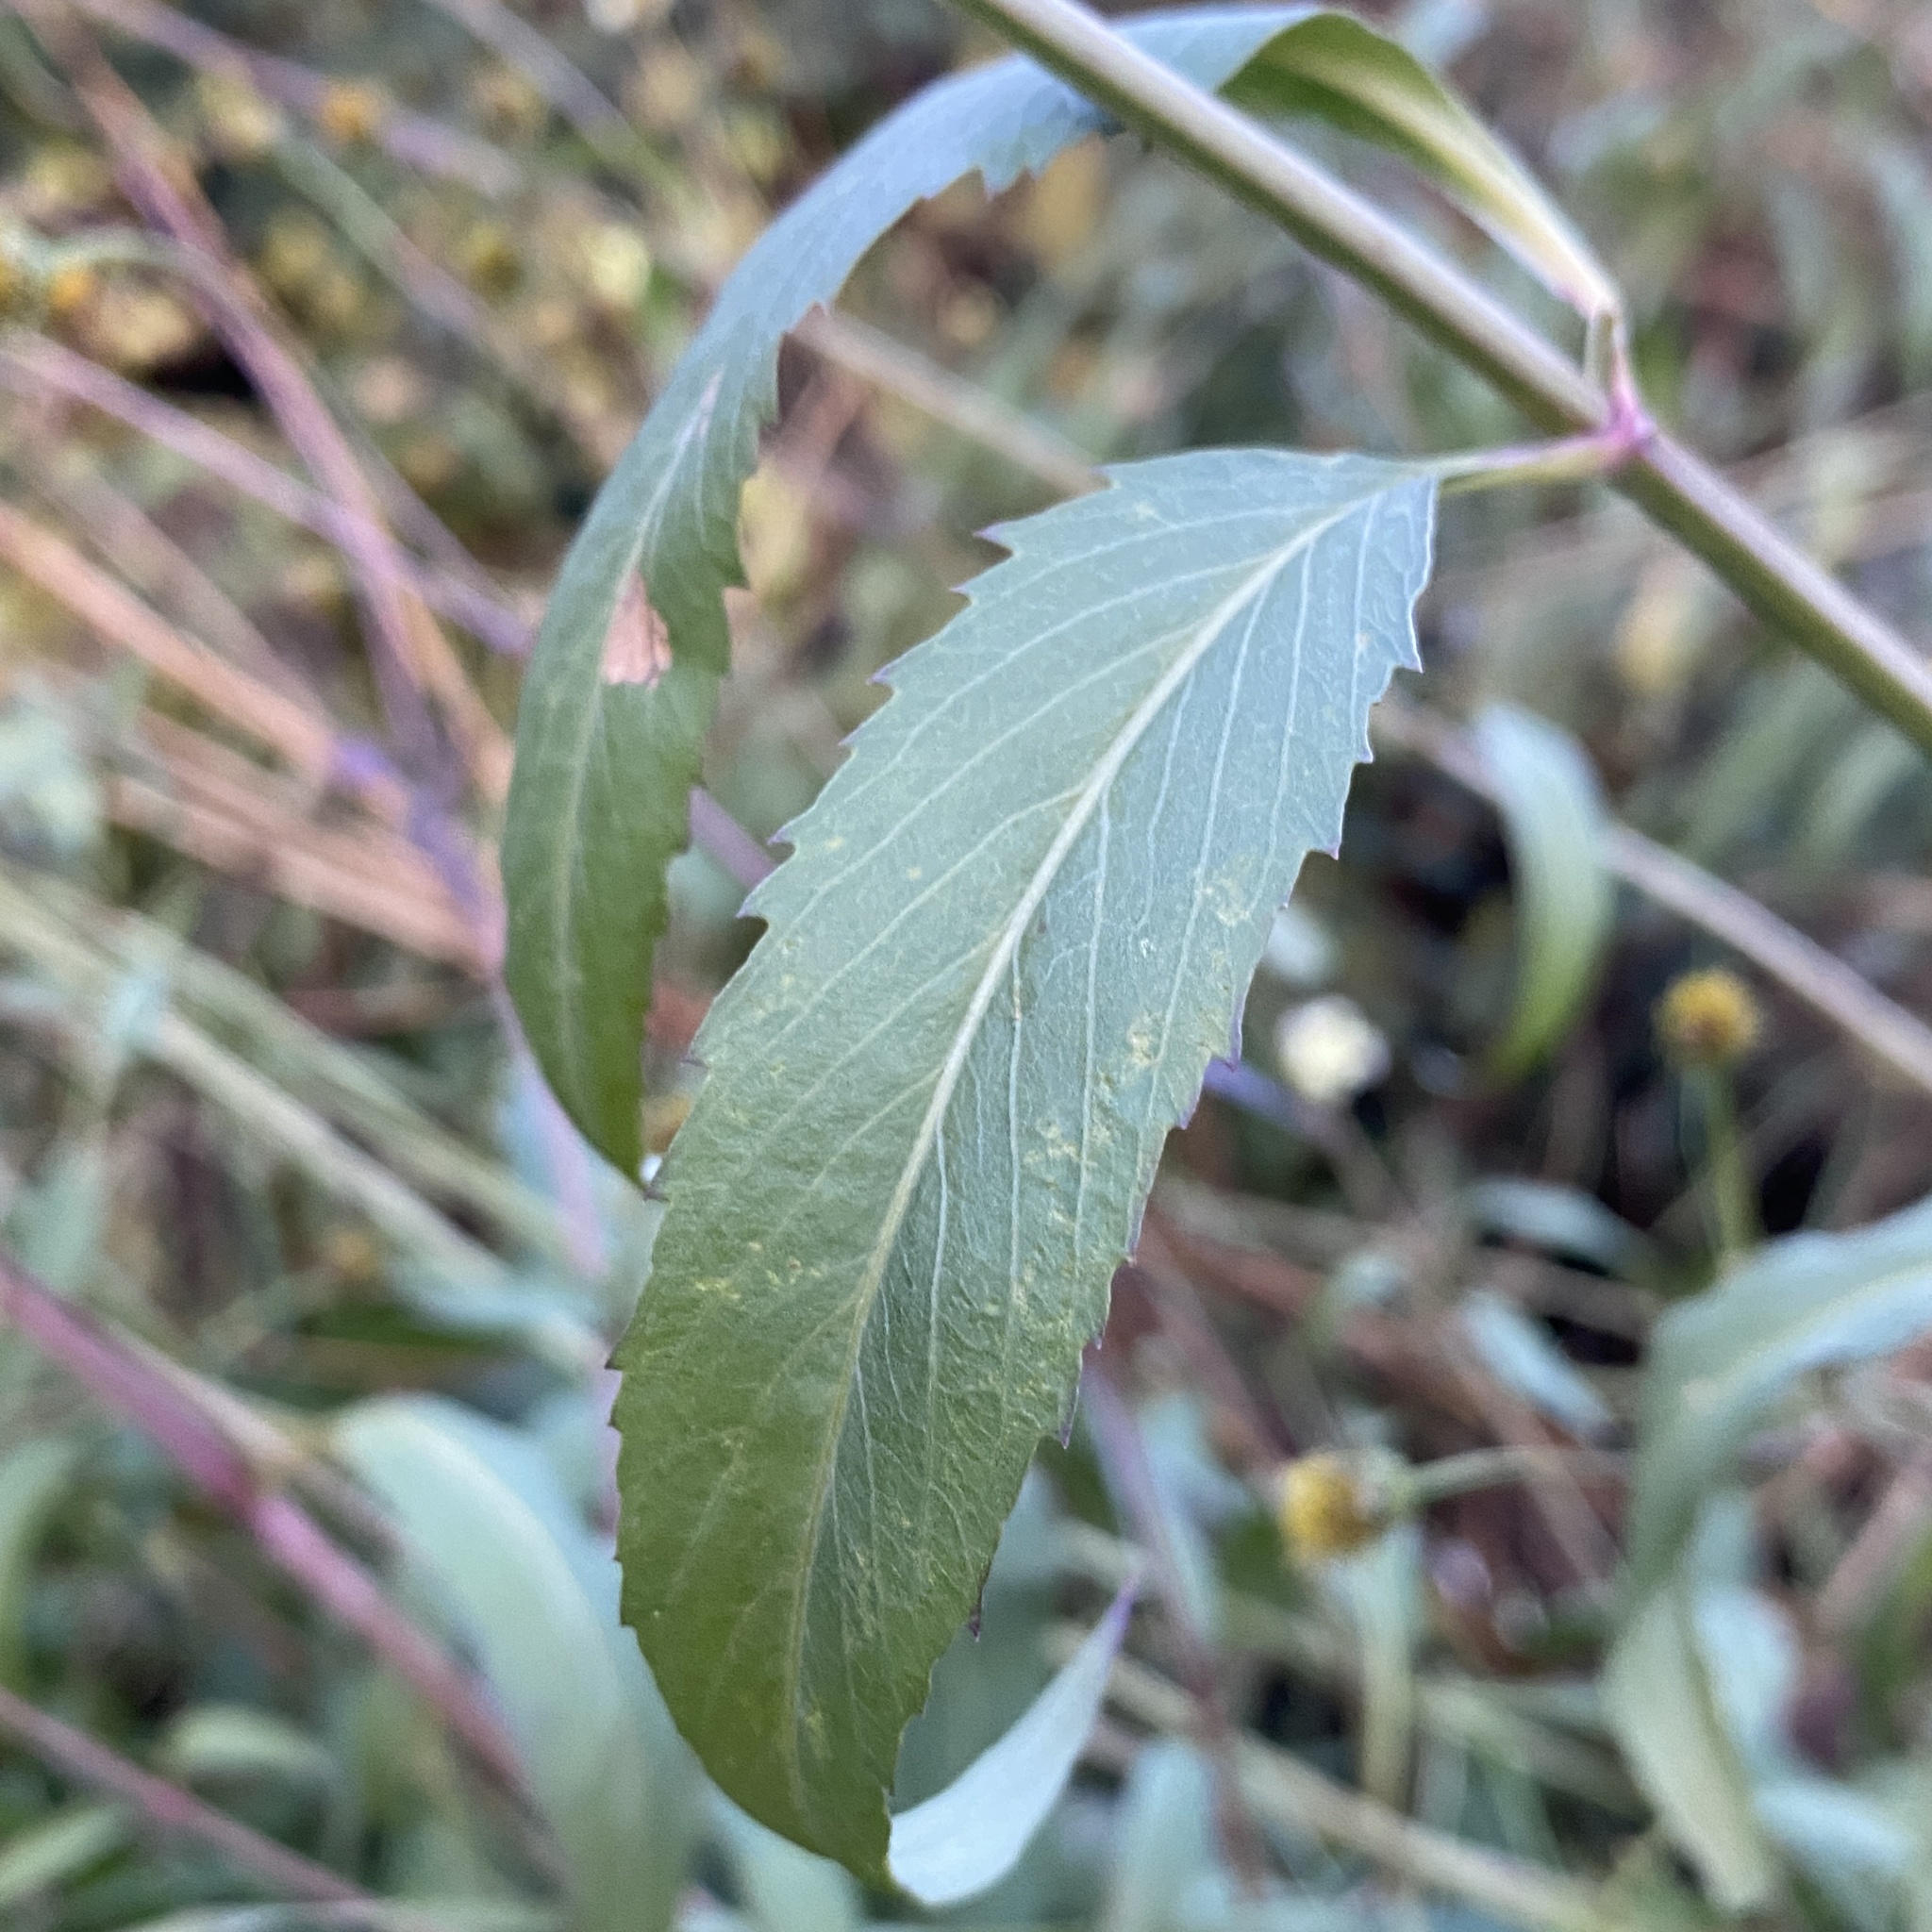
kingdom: Plantae
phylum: Tracheophyta
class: Magnoliopsida
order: Asterales
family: Asteraceae
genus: Bidens
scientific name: Bidens aurea
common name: Arizona beggar-ticks
